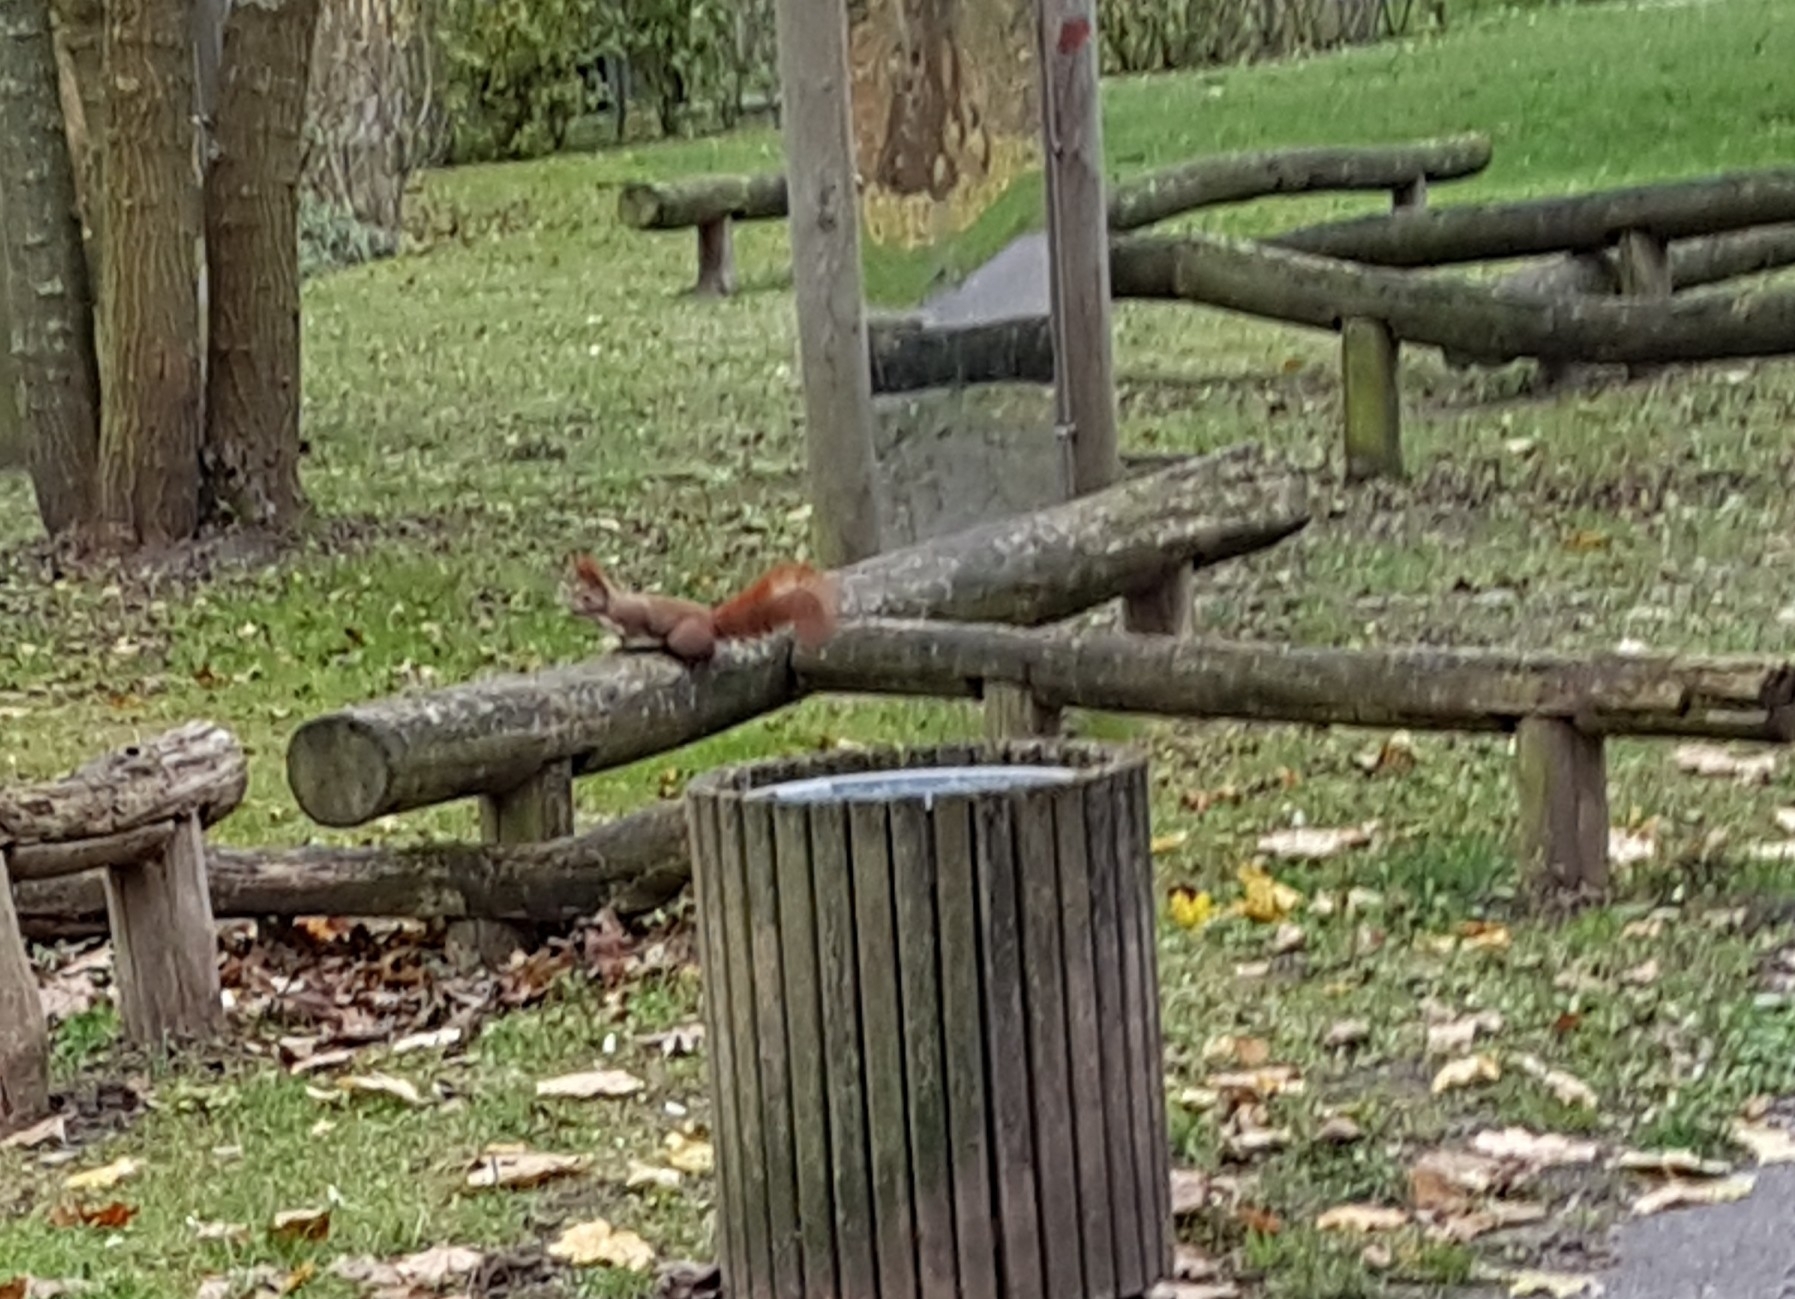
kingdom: Animalia
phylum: Chordata
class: Mammalia
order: Rodentia
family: Sciuridae
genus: Sciurus
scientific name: Sciurus vulgaris
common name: Eurasian red squirrel
